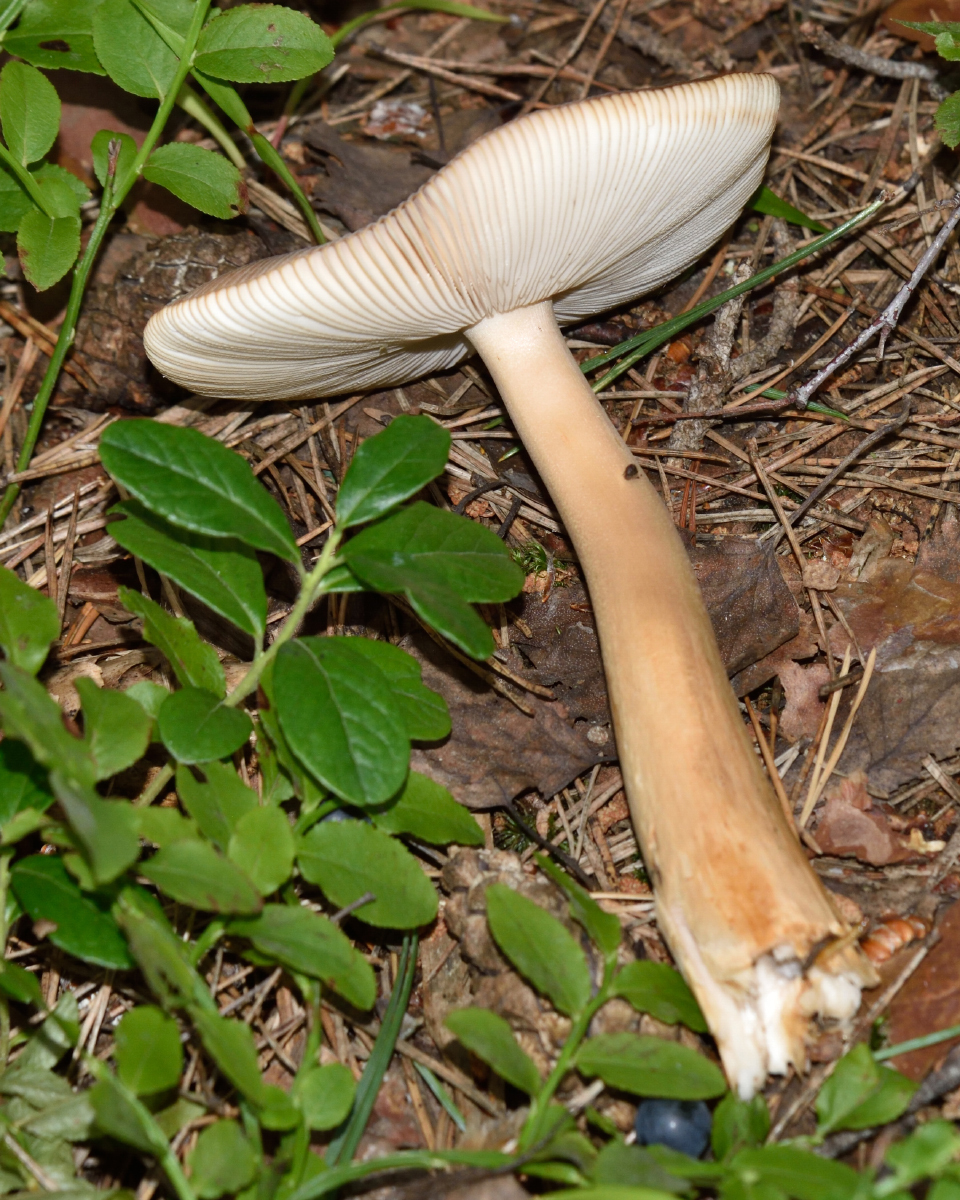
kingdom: Fungi
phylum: Basidiomycota
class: Agaricomycetes
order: Agaricales
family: Amanitaceae
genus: Amanita
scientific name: Amanita fulva
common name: Tawny grisette
